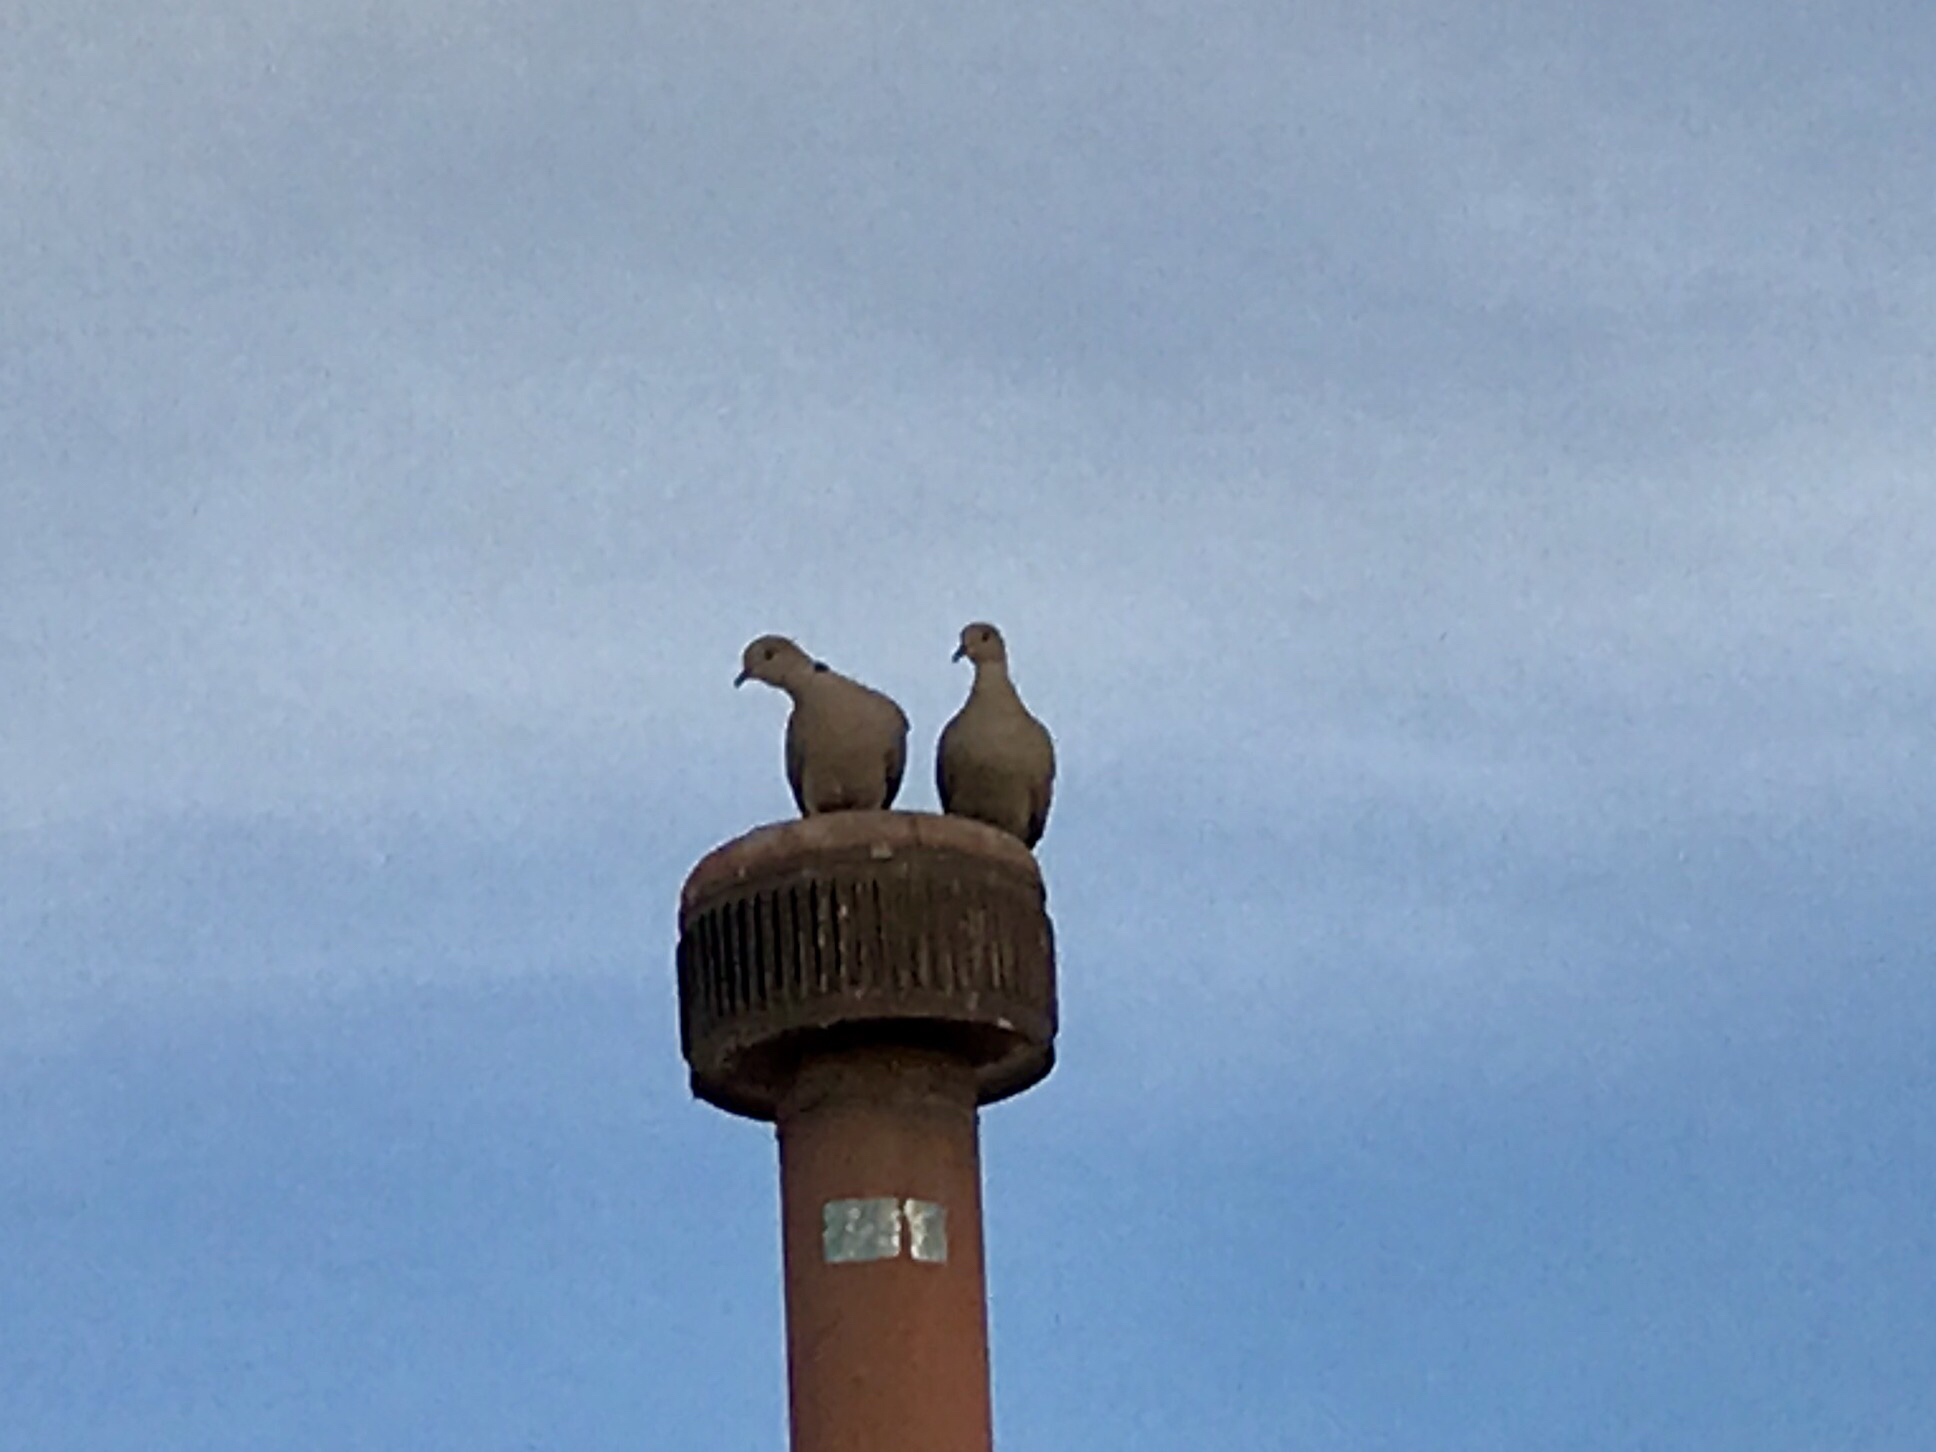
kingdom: Animalia
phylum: Chordata
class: Aves
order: Columbiformes
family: Columbidae
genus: Zenaida
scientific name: Zenaida macroura
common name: Mourning dove
